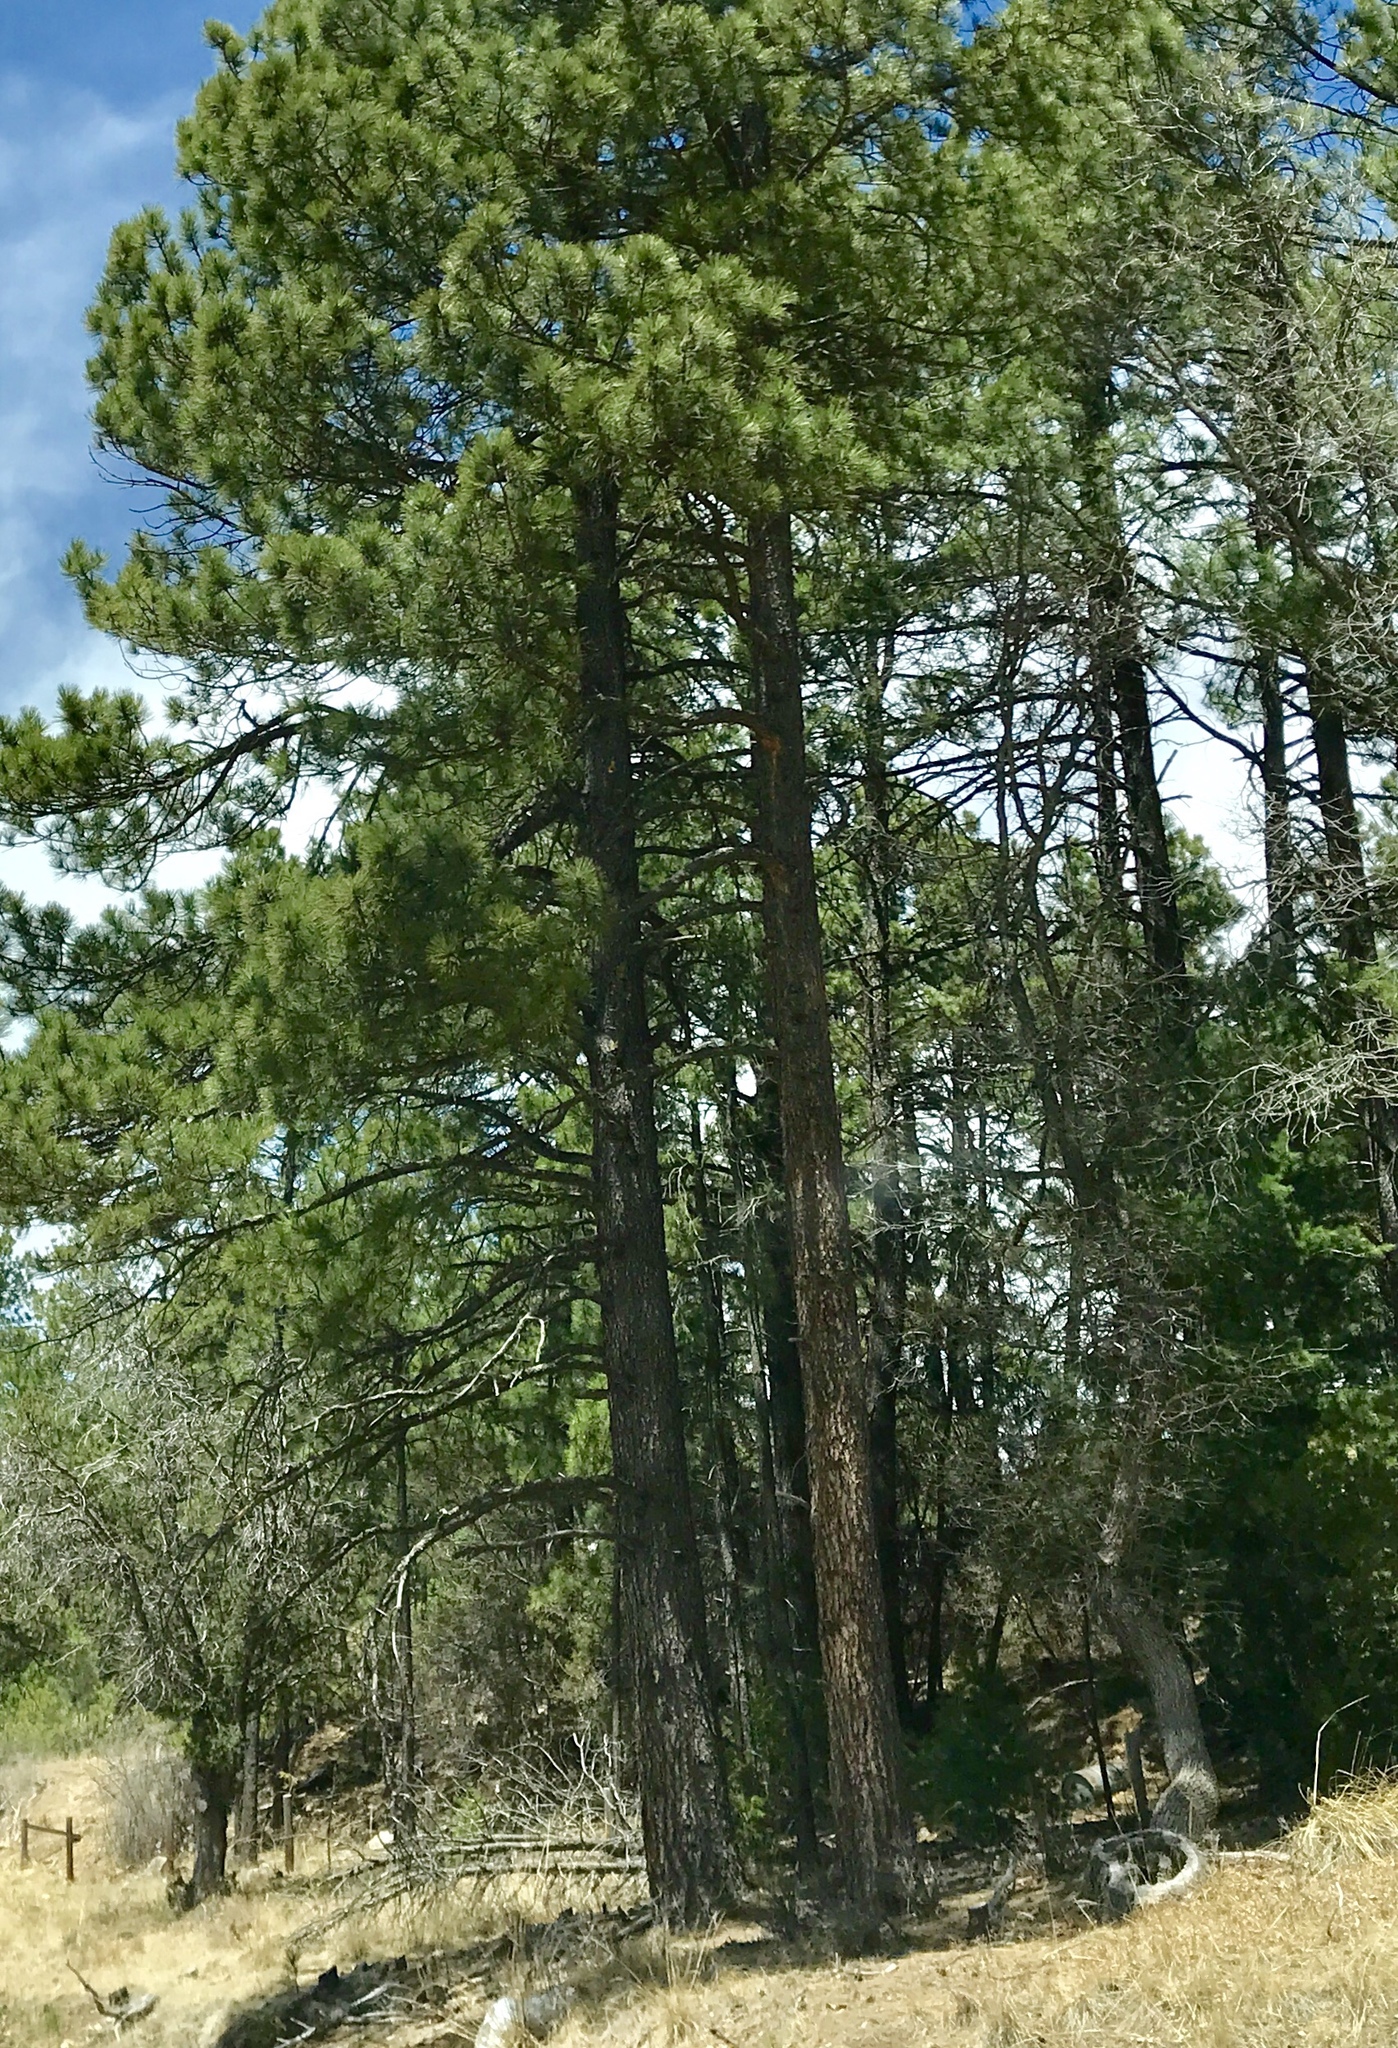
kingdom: Plantae
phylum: Tracheophyta
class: Pinopsida
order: Pinales
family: Pinaceae
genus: Pinus
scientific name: Pinus ponderosa
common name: Western yellow-pine
